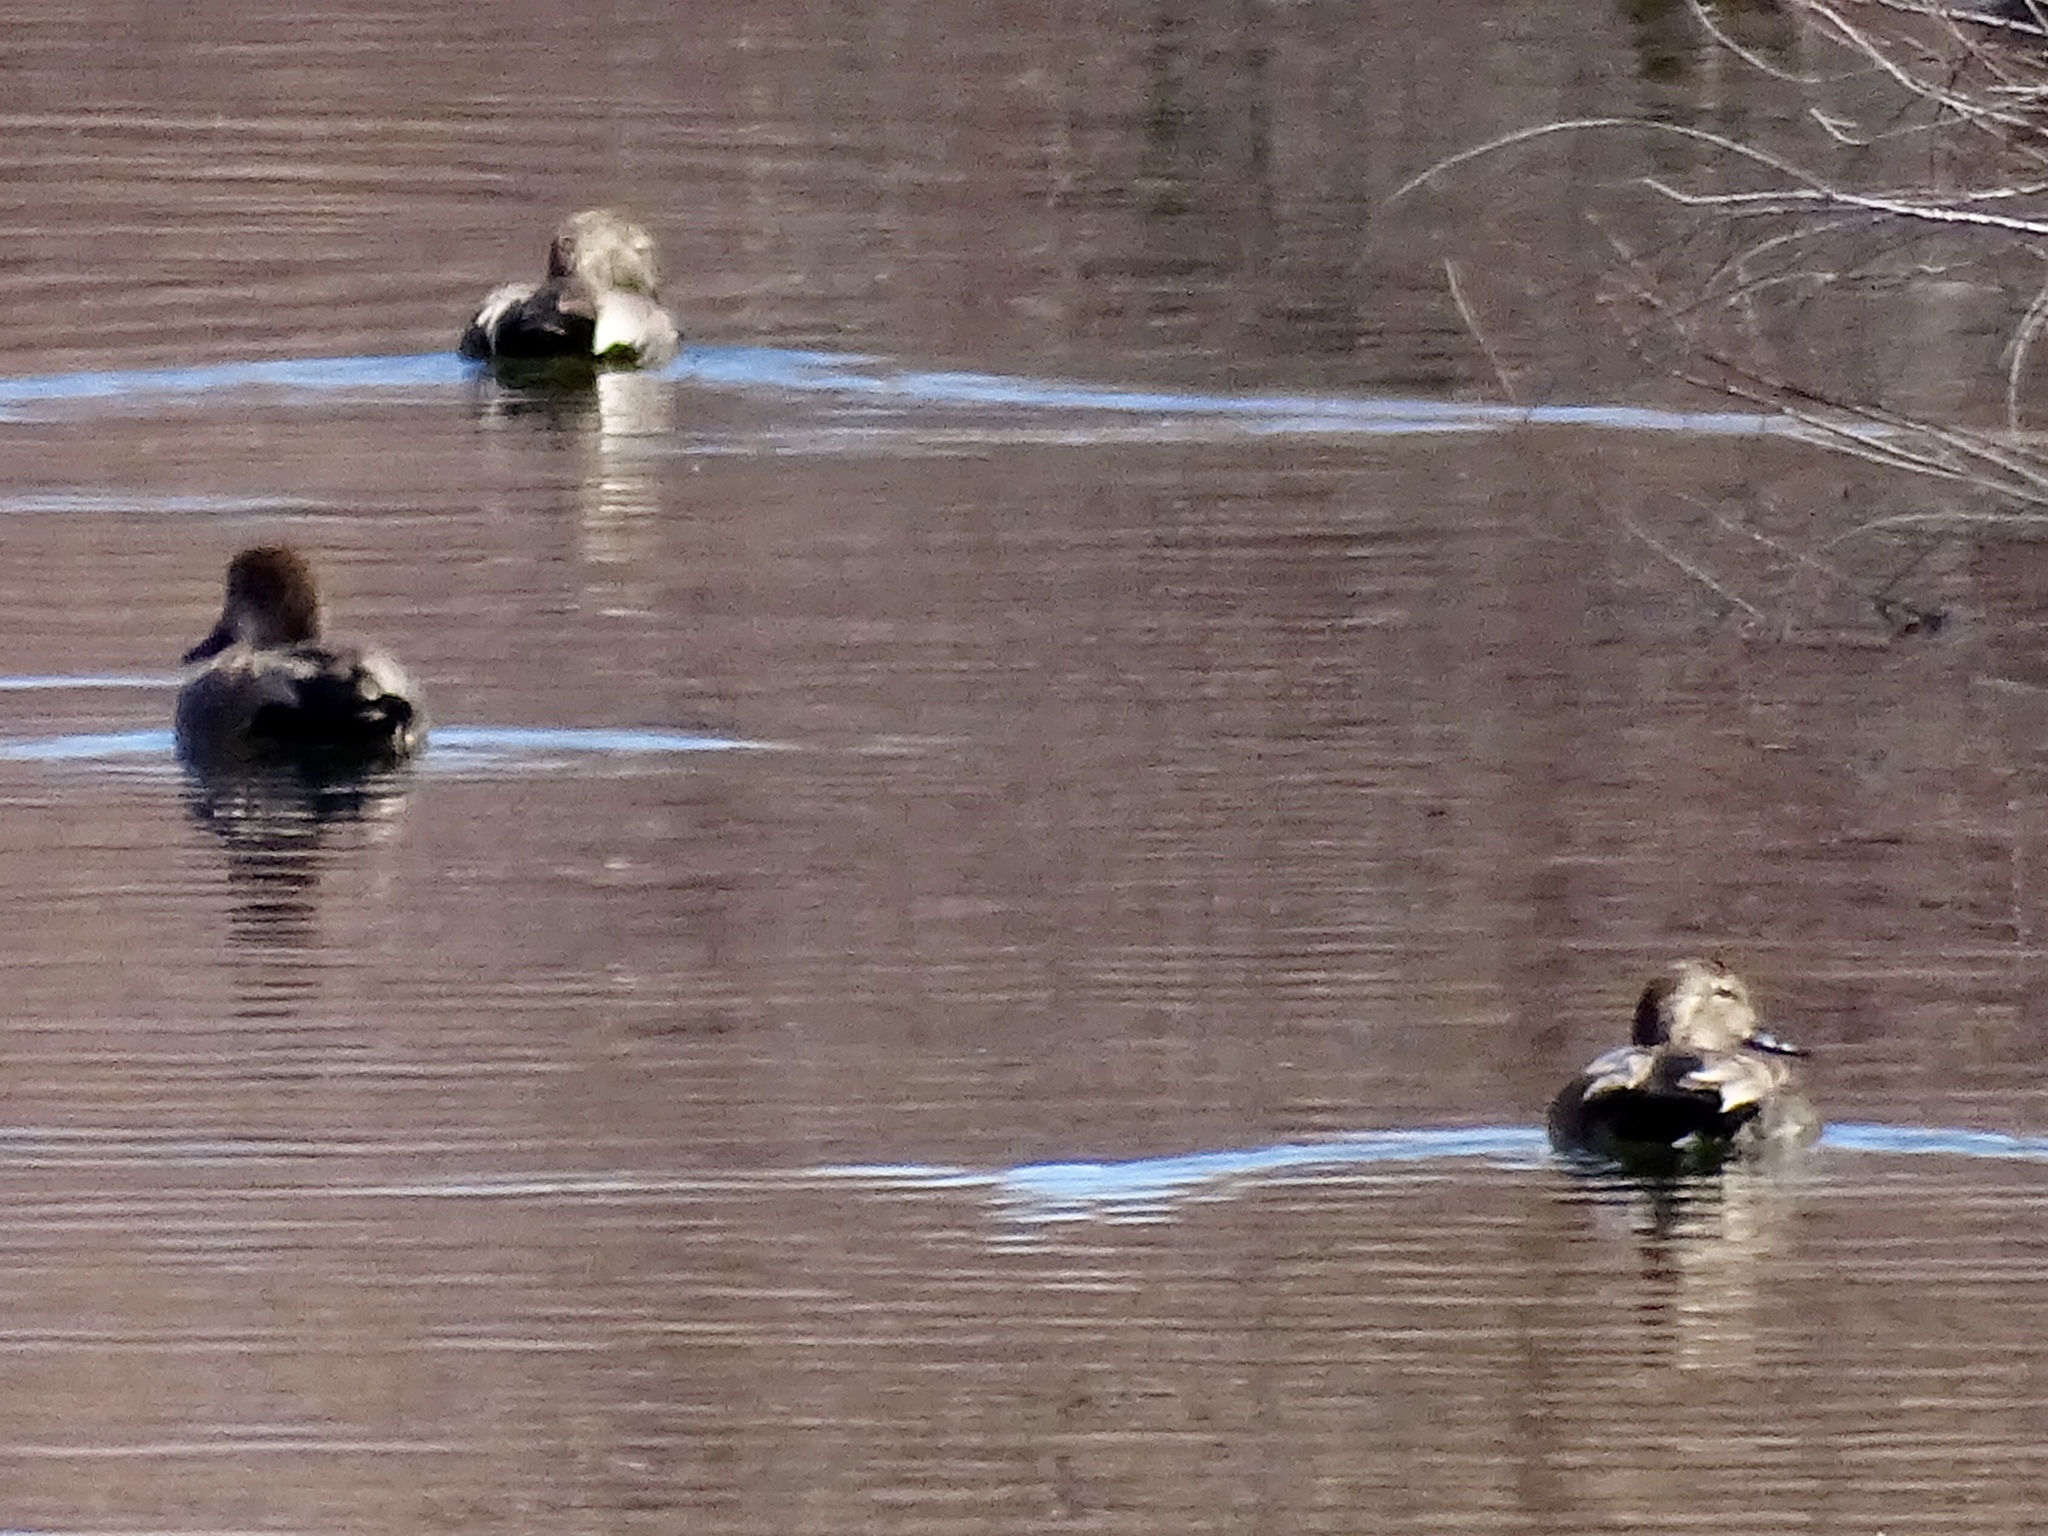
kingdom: Animalia
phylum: Chordata
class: Aves
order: Anseriformes
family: Anatidae
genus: Mareca
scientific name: Mareca strepera
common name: Gadwall
